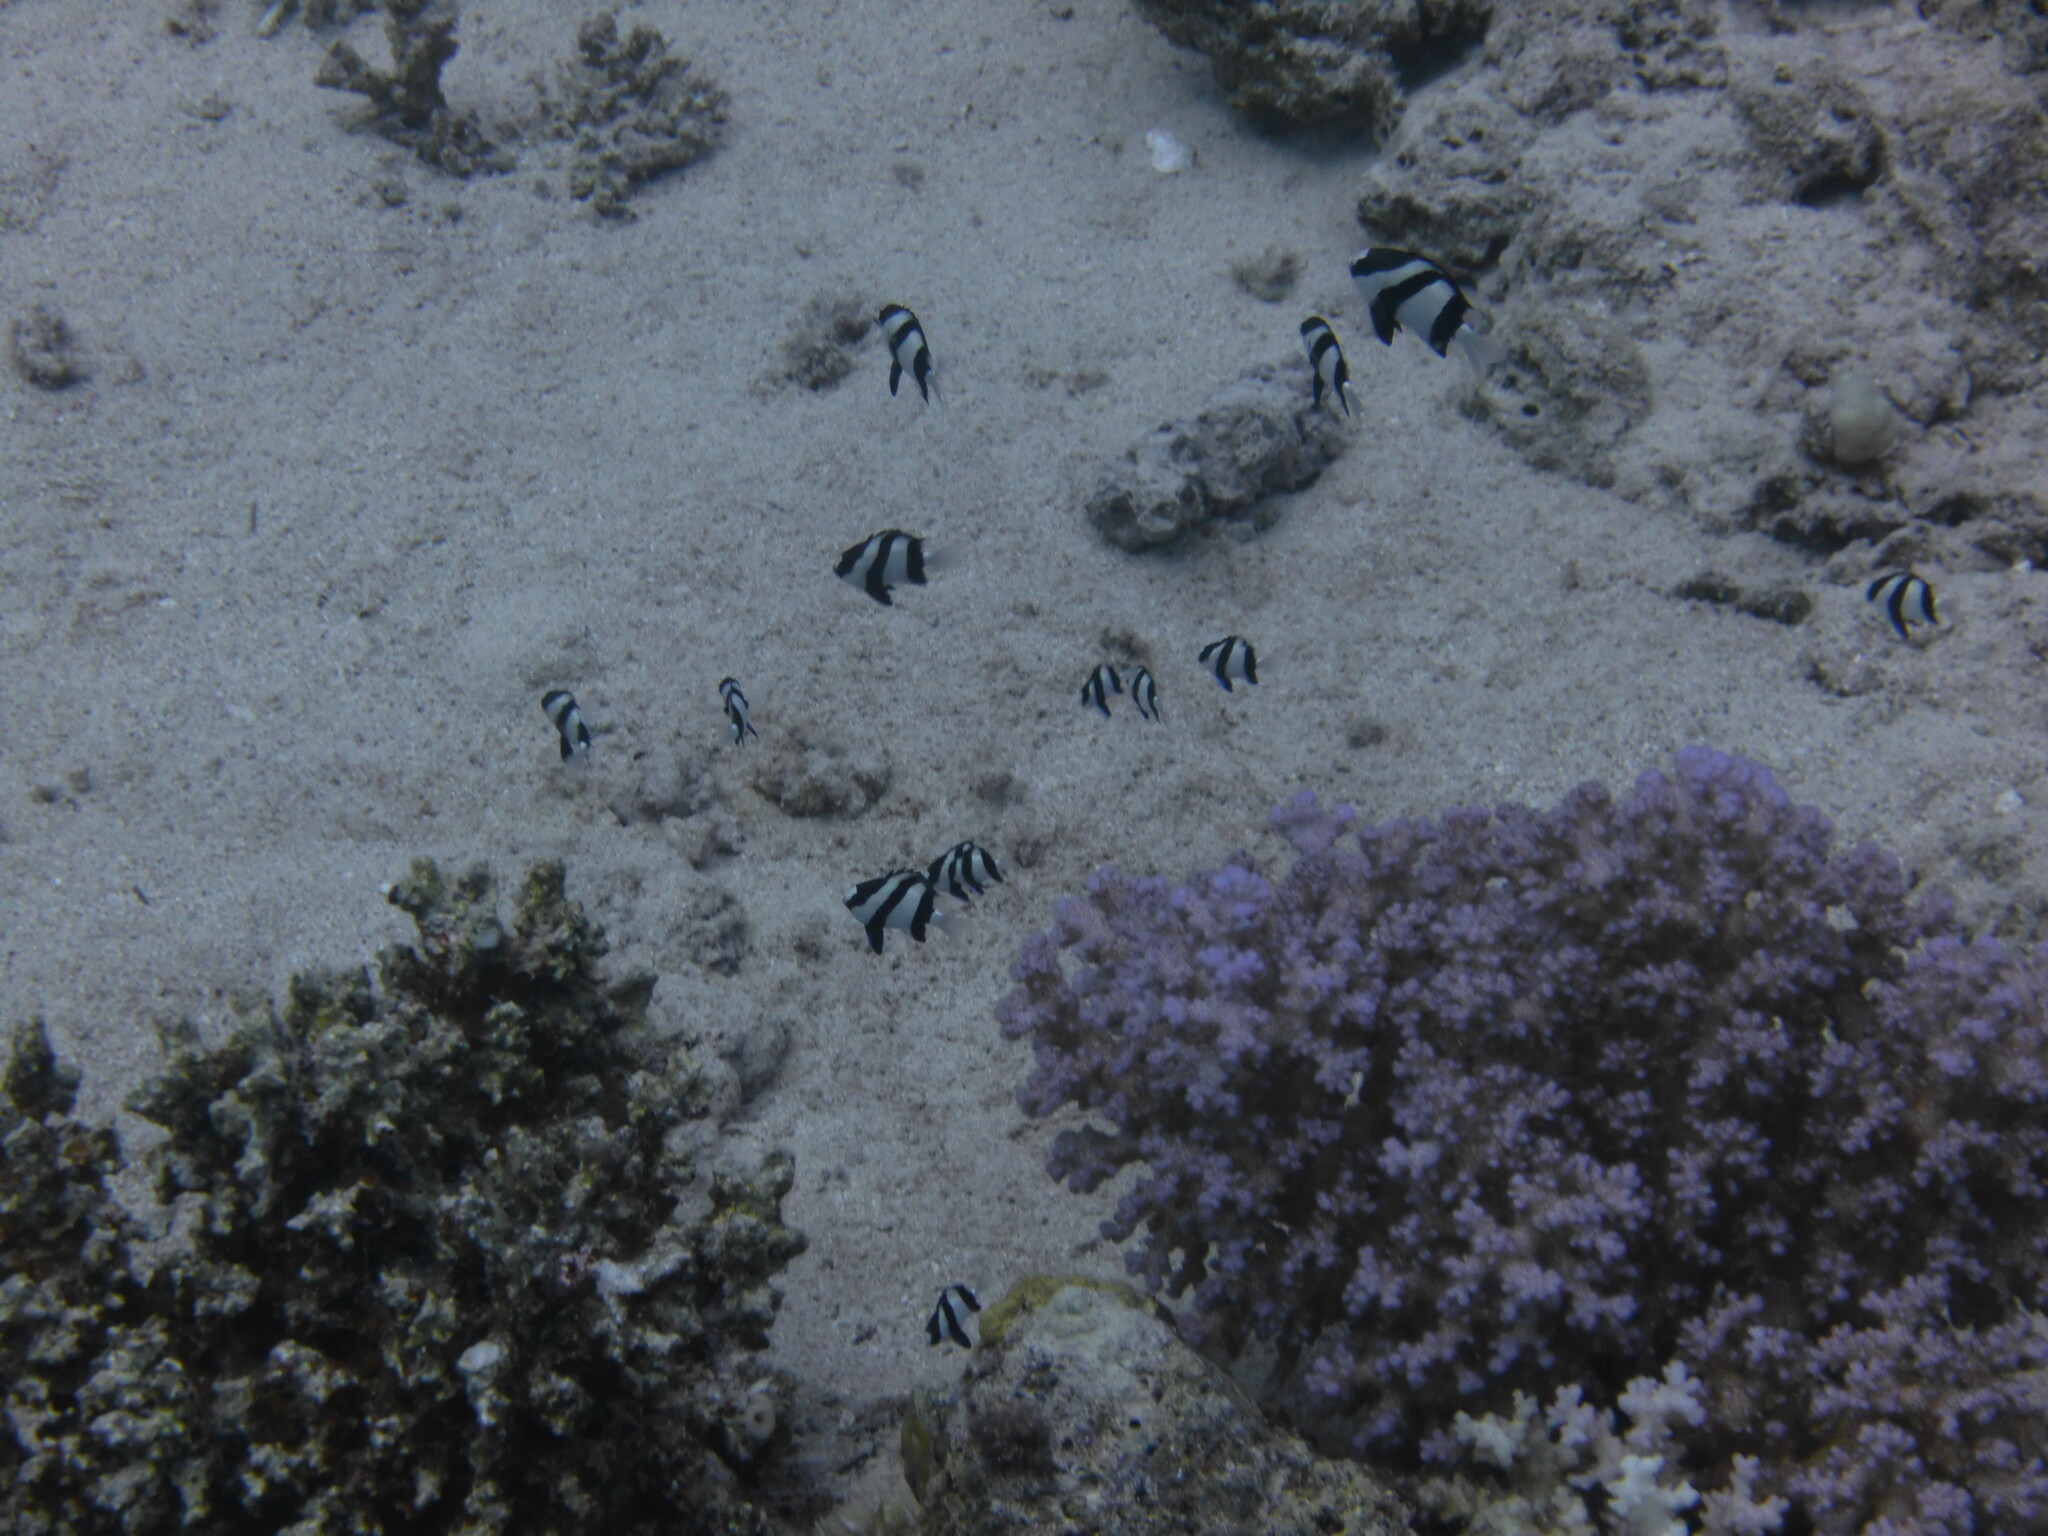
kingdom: Animalia
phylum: Chordata
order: Perciformes
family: Pomacentridae
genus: Dascyllus
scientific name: Dascyllus abudafur
